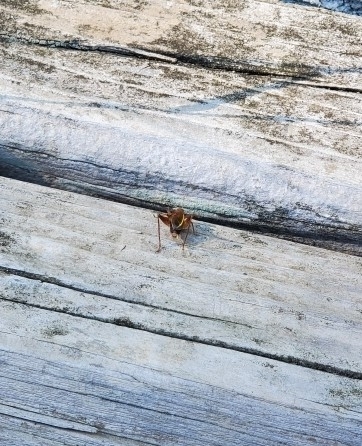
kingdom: Animalia
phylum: Arthropoda
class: Insecta
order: Orthoptera
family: Gryllidae
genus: Hapithus
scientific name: Hapithus agitator
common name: Restless bush cricket
